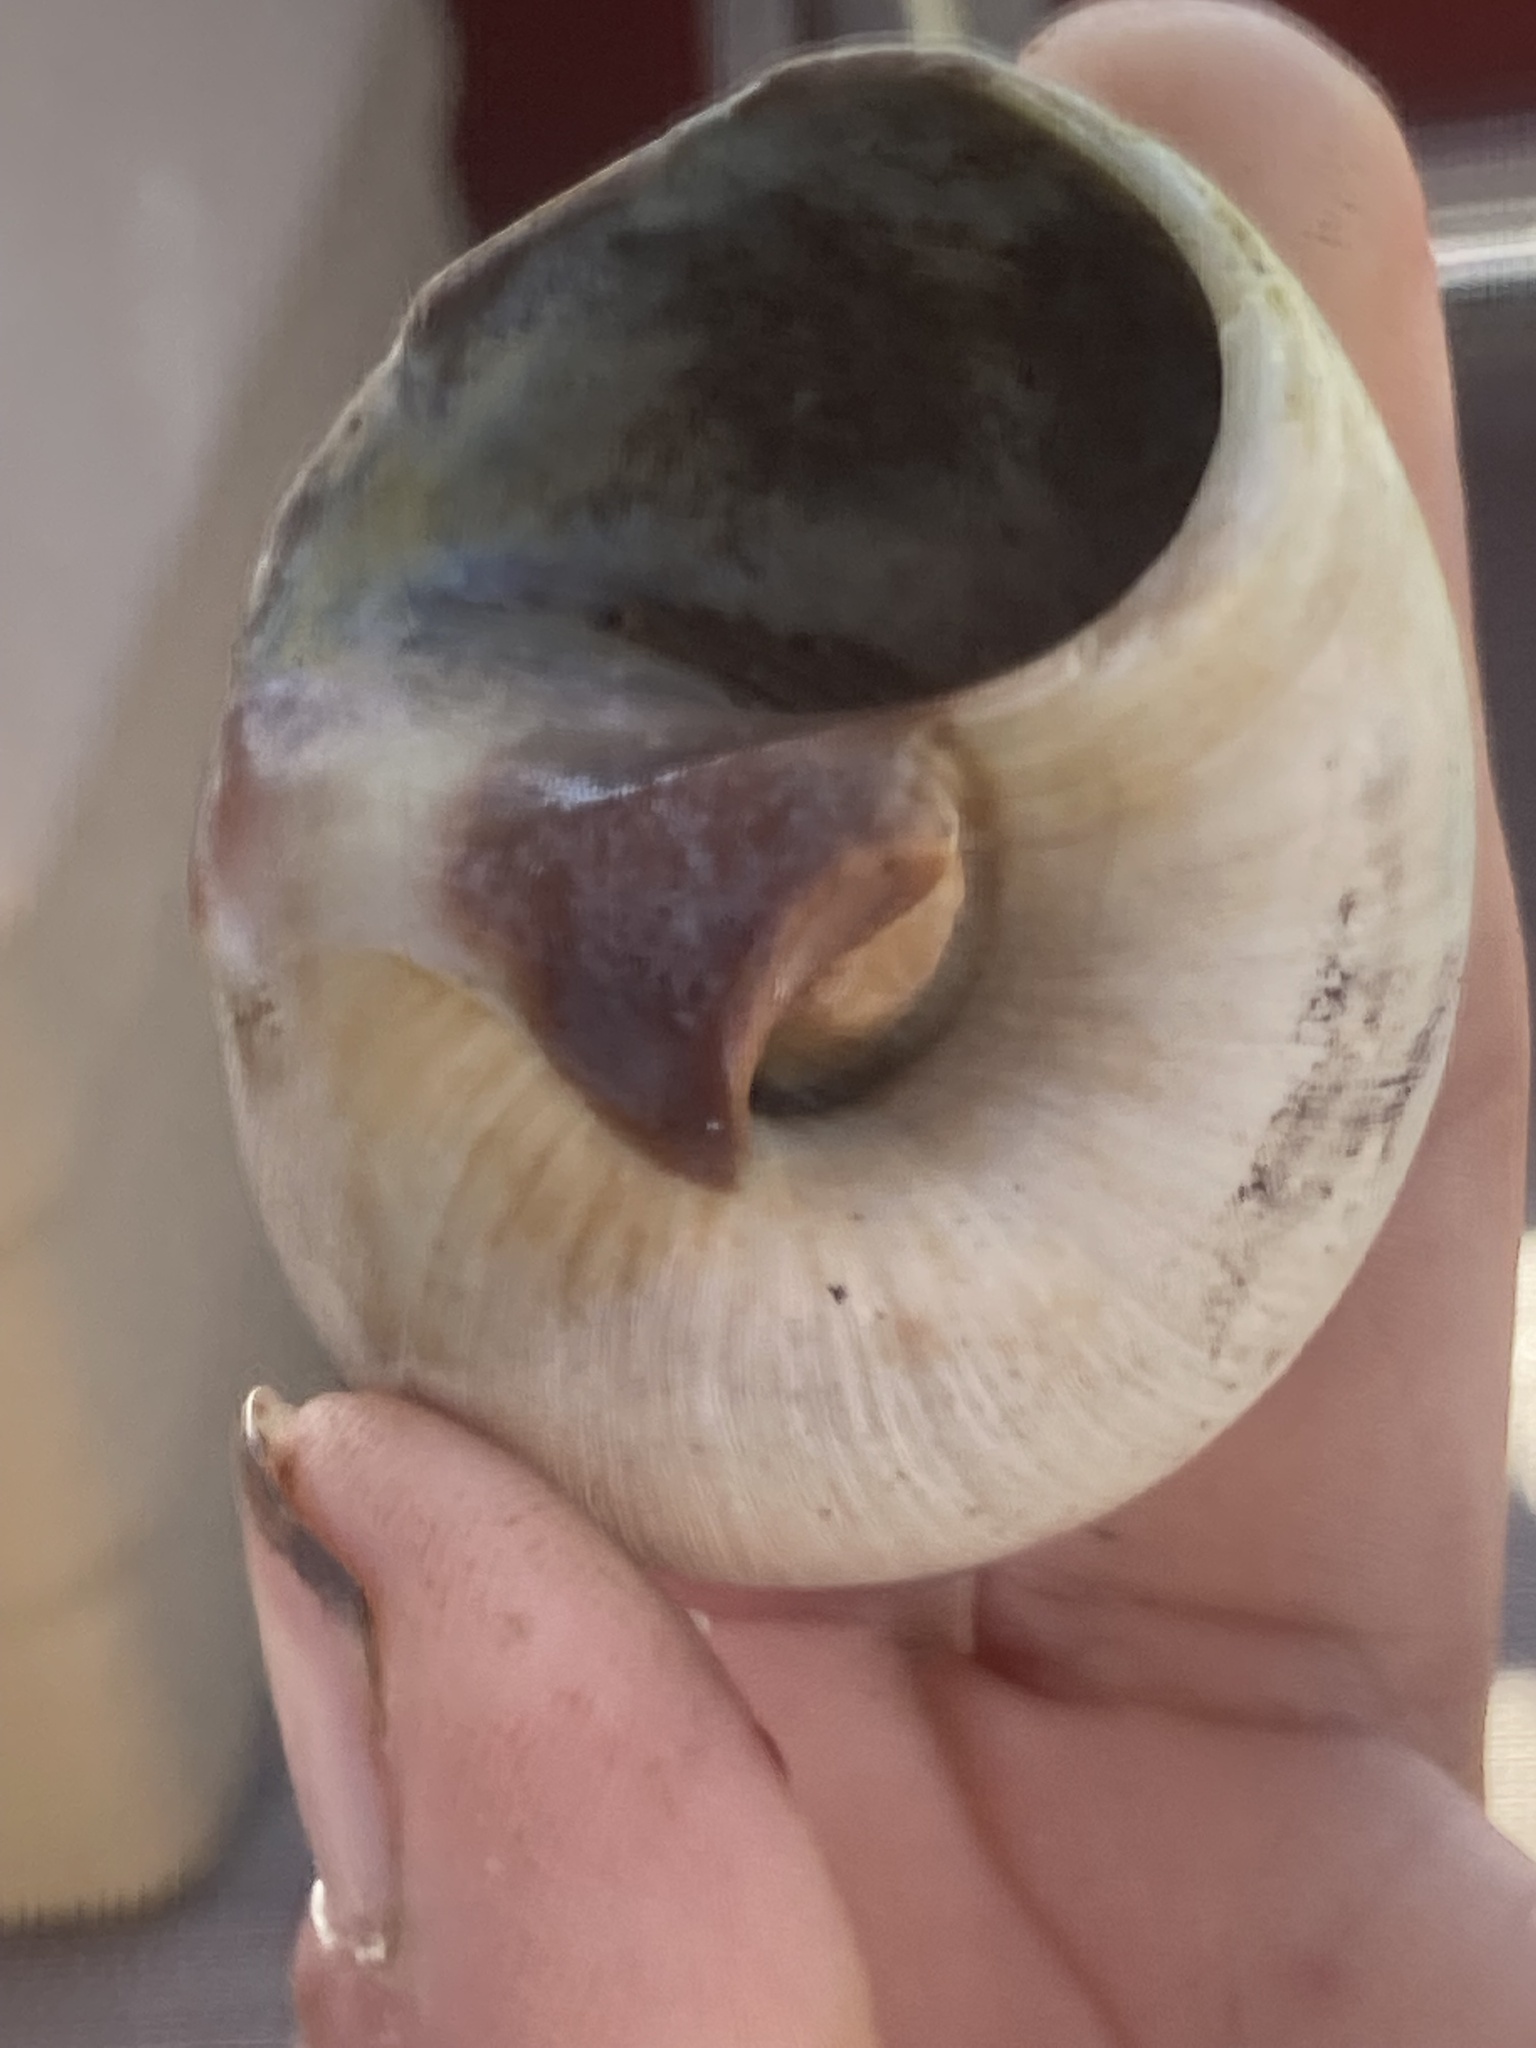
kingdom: Animalia
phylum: Mollusca
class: Gastropoda
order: Littorinimorpha
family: Naticidae
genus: Neverita
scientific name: Neverita delessertiana
